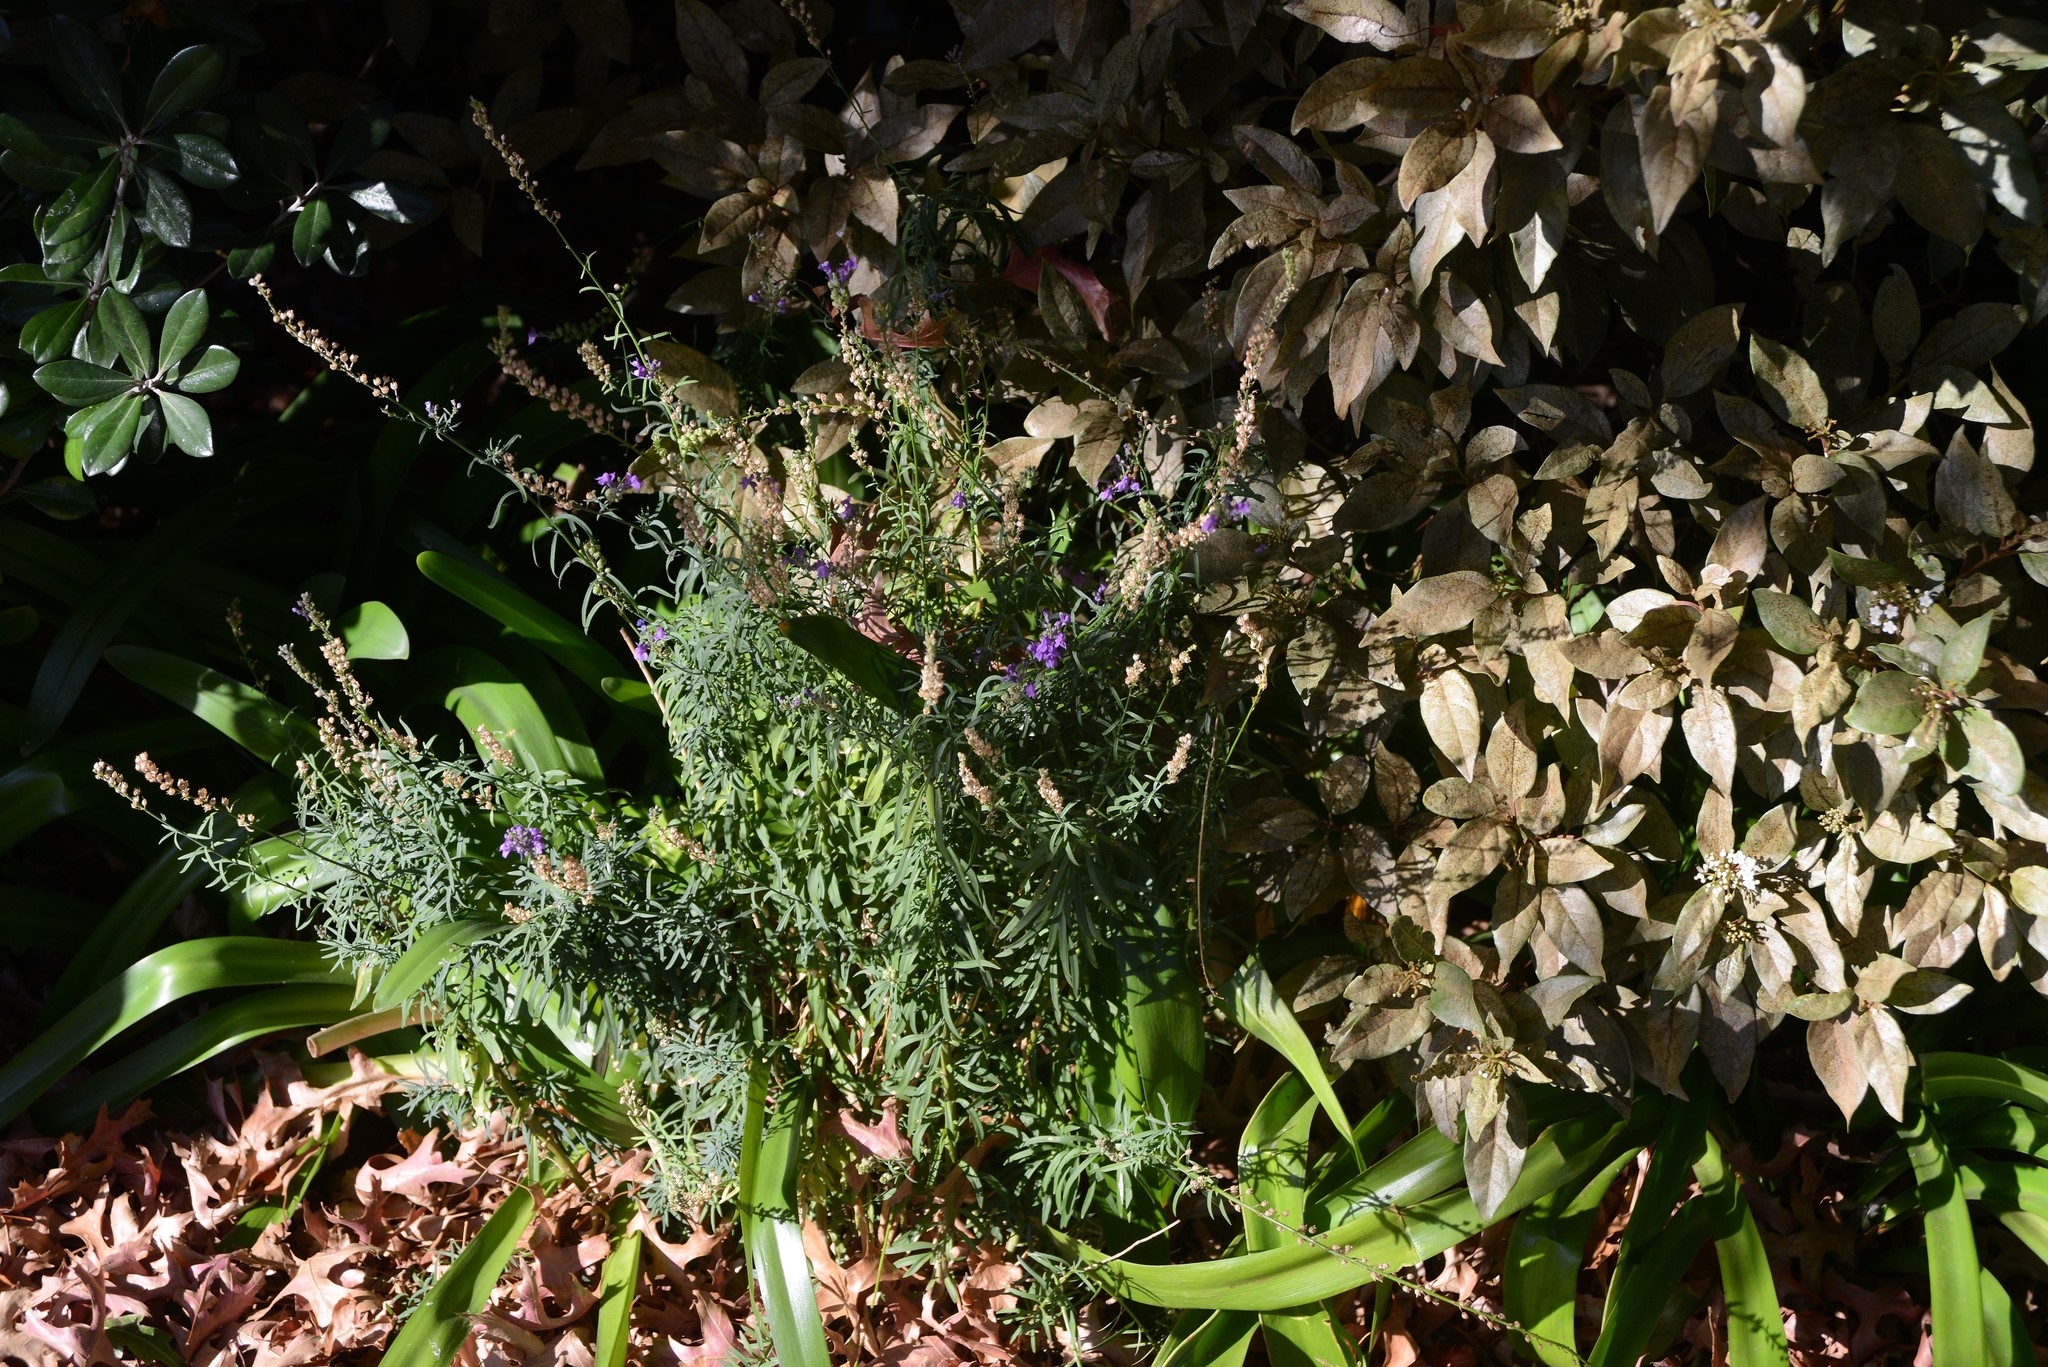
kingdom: Plantae
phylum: Tracheophyta
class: Magnoliopsida
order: Lamiales
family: Plantaginaceae
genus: Linaria
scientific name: Linaria purpurea
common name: Purple toadflax
